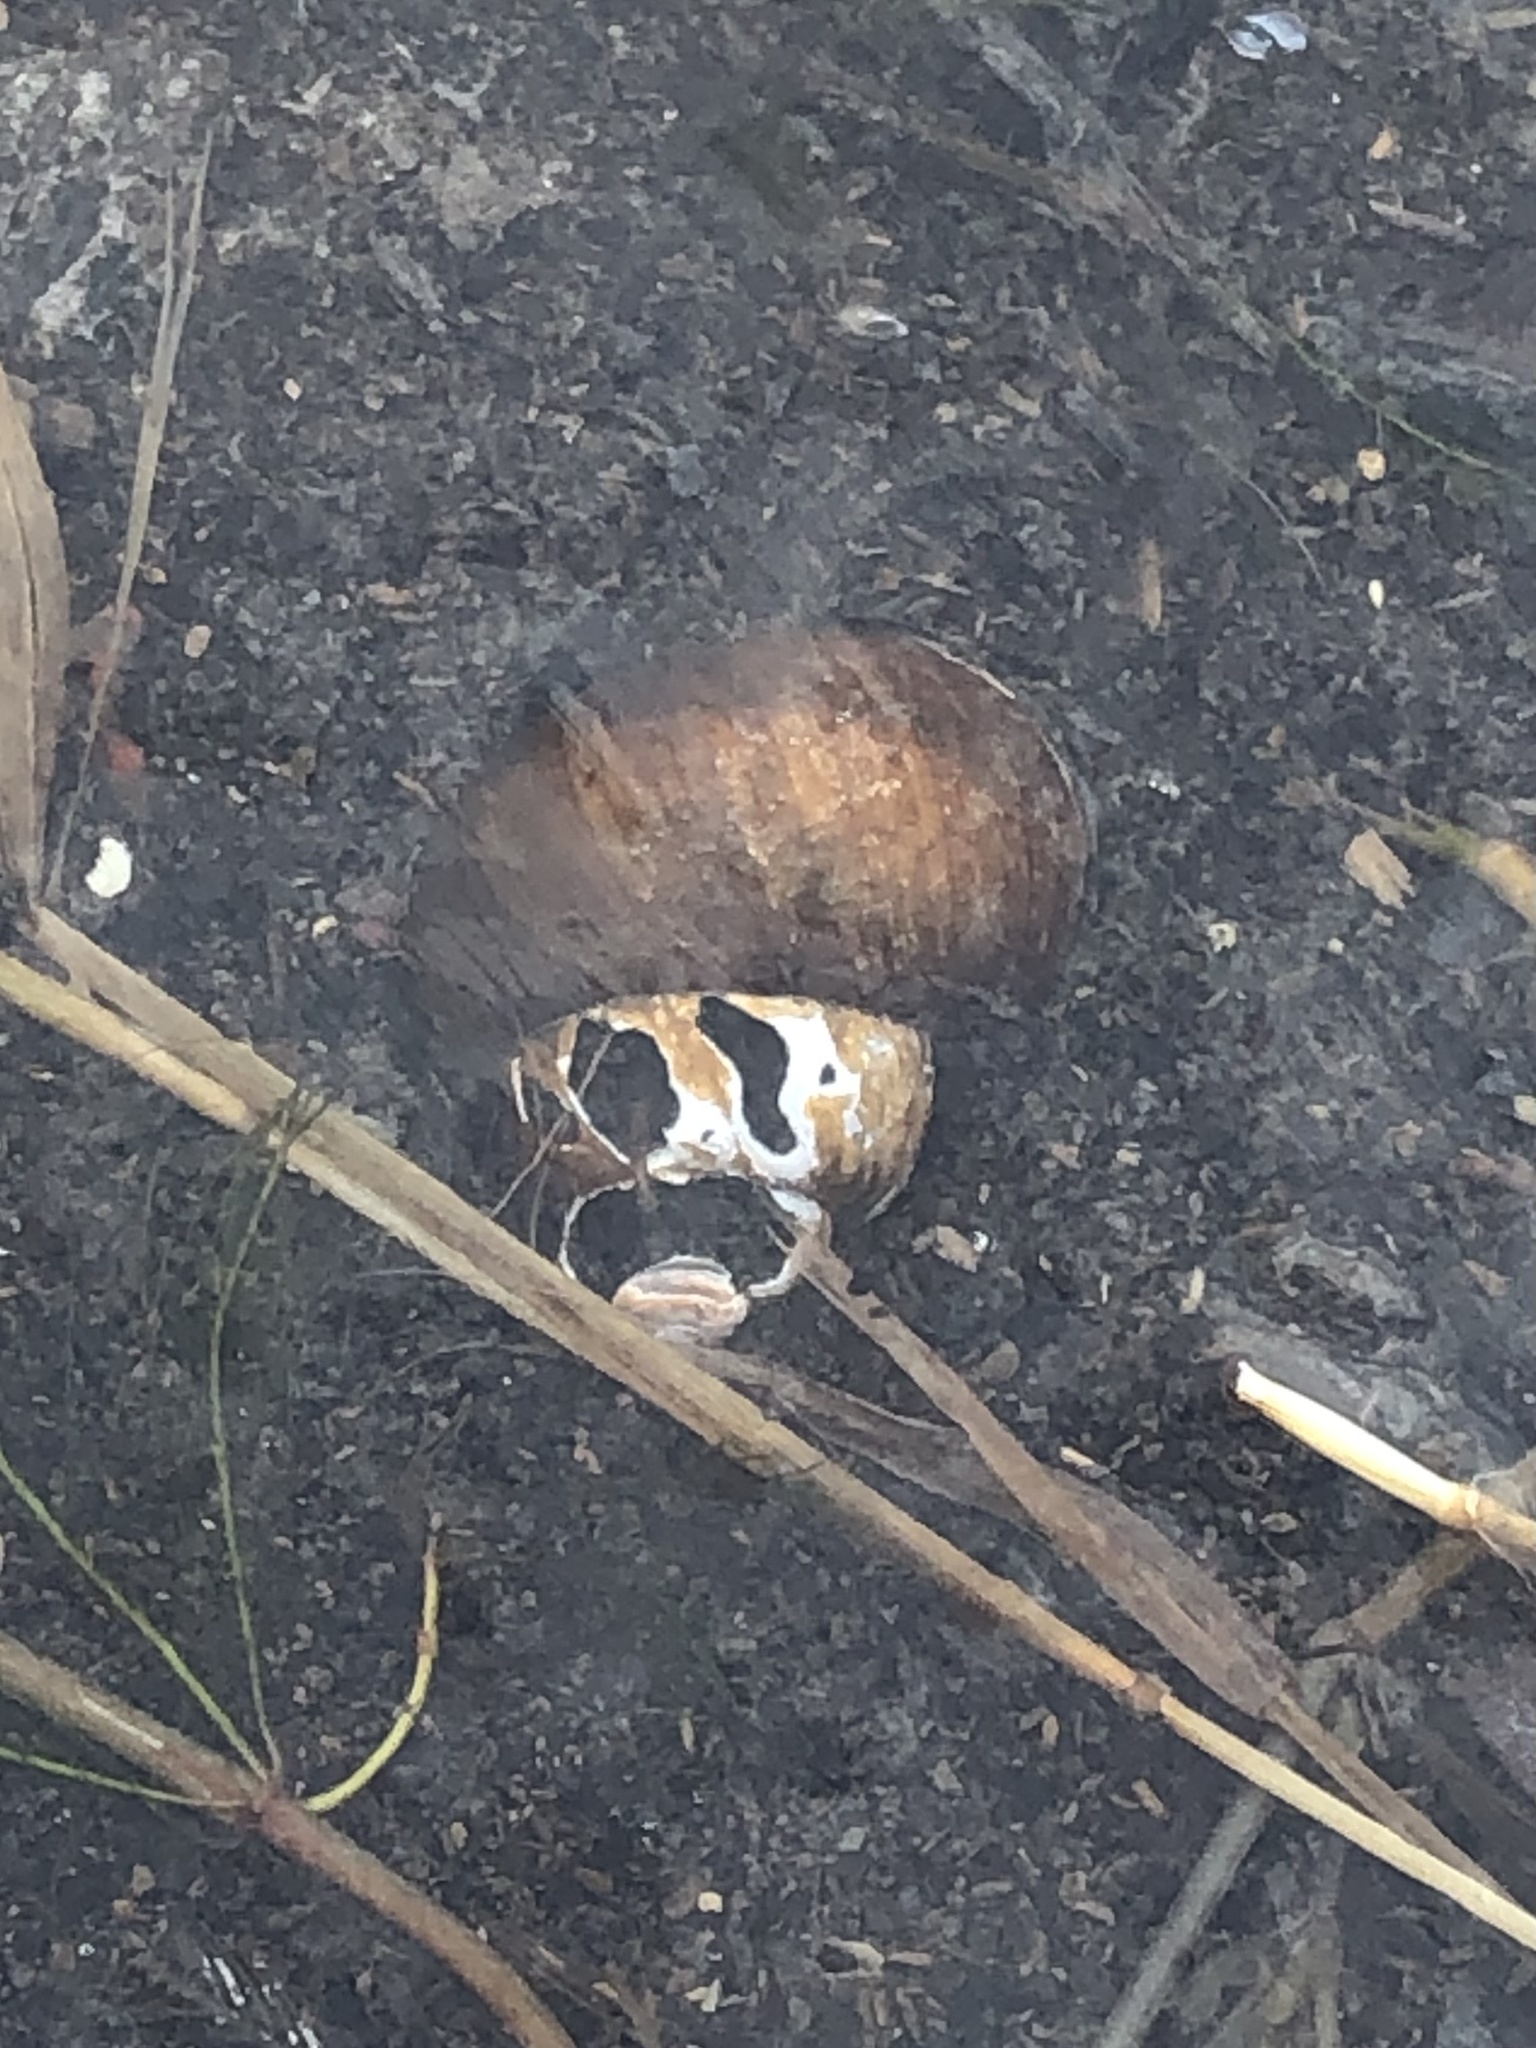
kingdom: Animalia
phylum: Mollusca
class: Gastropoda
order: Architaenioglossa
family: Viviparidae
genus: Cipangopaludina
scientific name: Cipangopaludina chinensis
